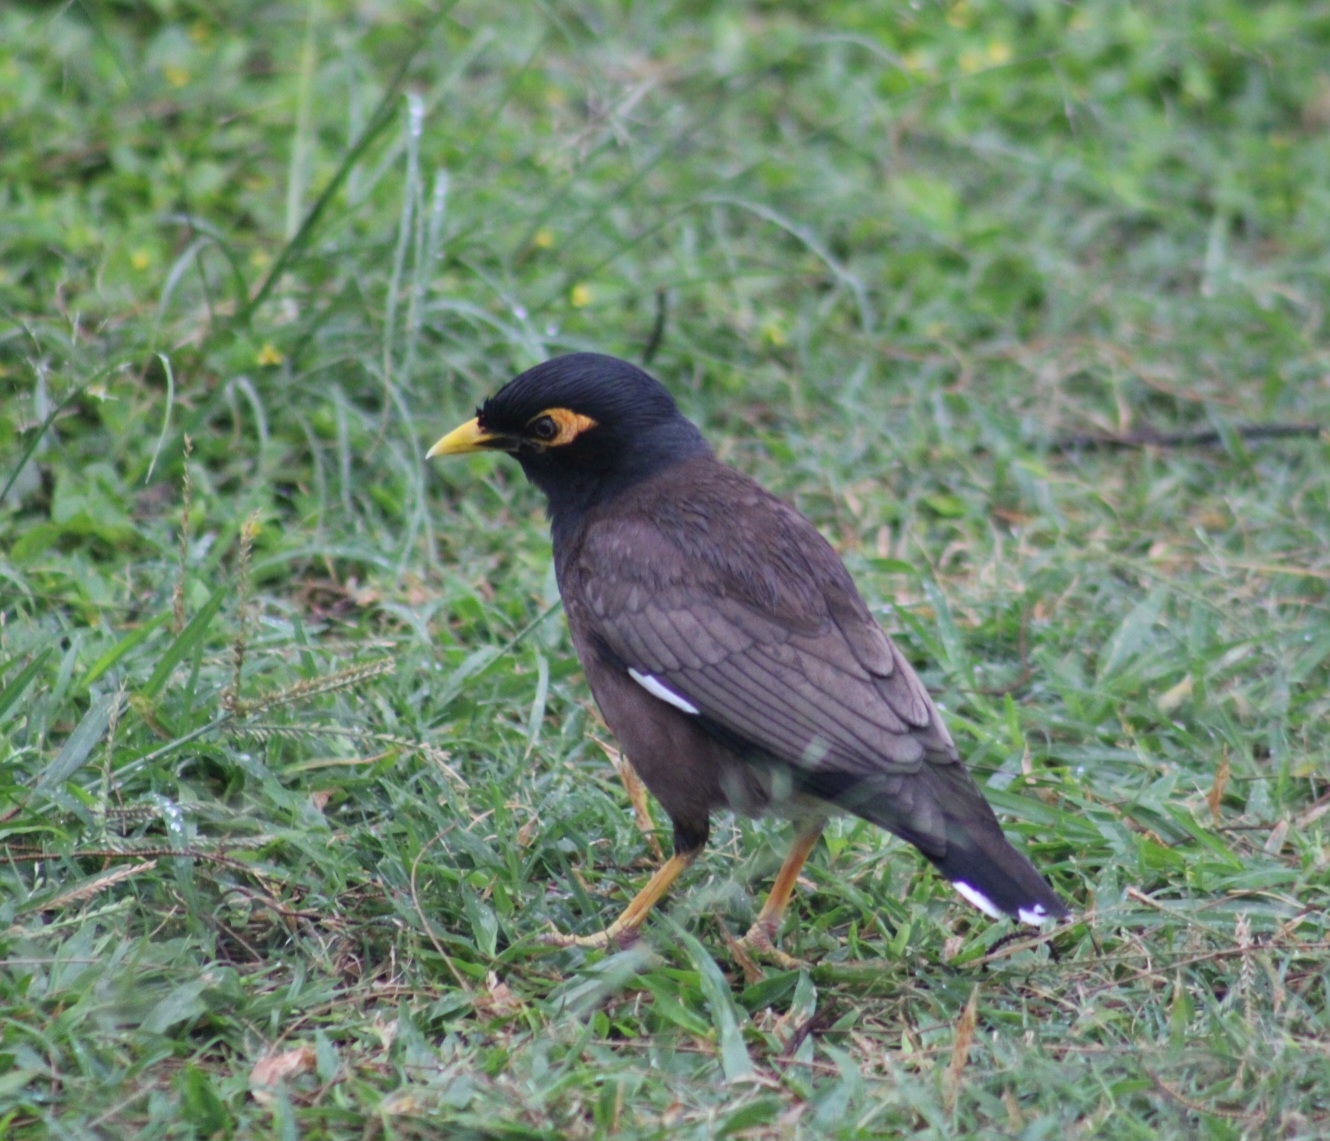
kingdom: Animalia
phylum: Chordata
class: Aves
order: Passeriformes
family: Sturnidae
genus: Acridotheres
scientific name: Acridotheres tristis
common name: Common myna
